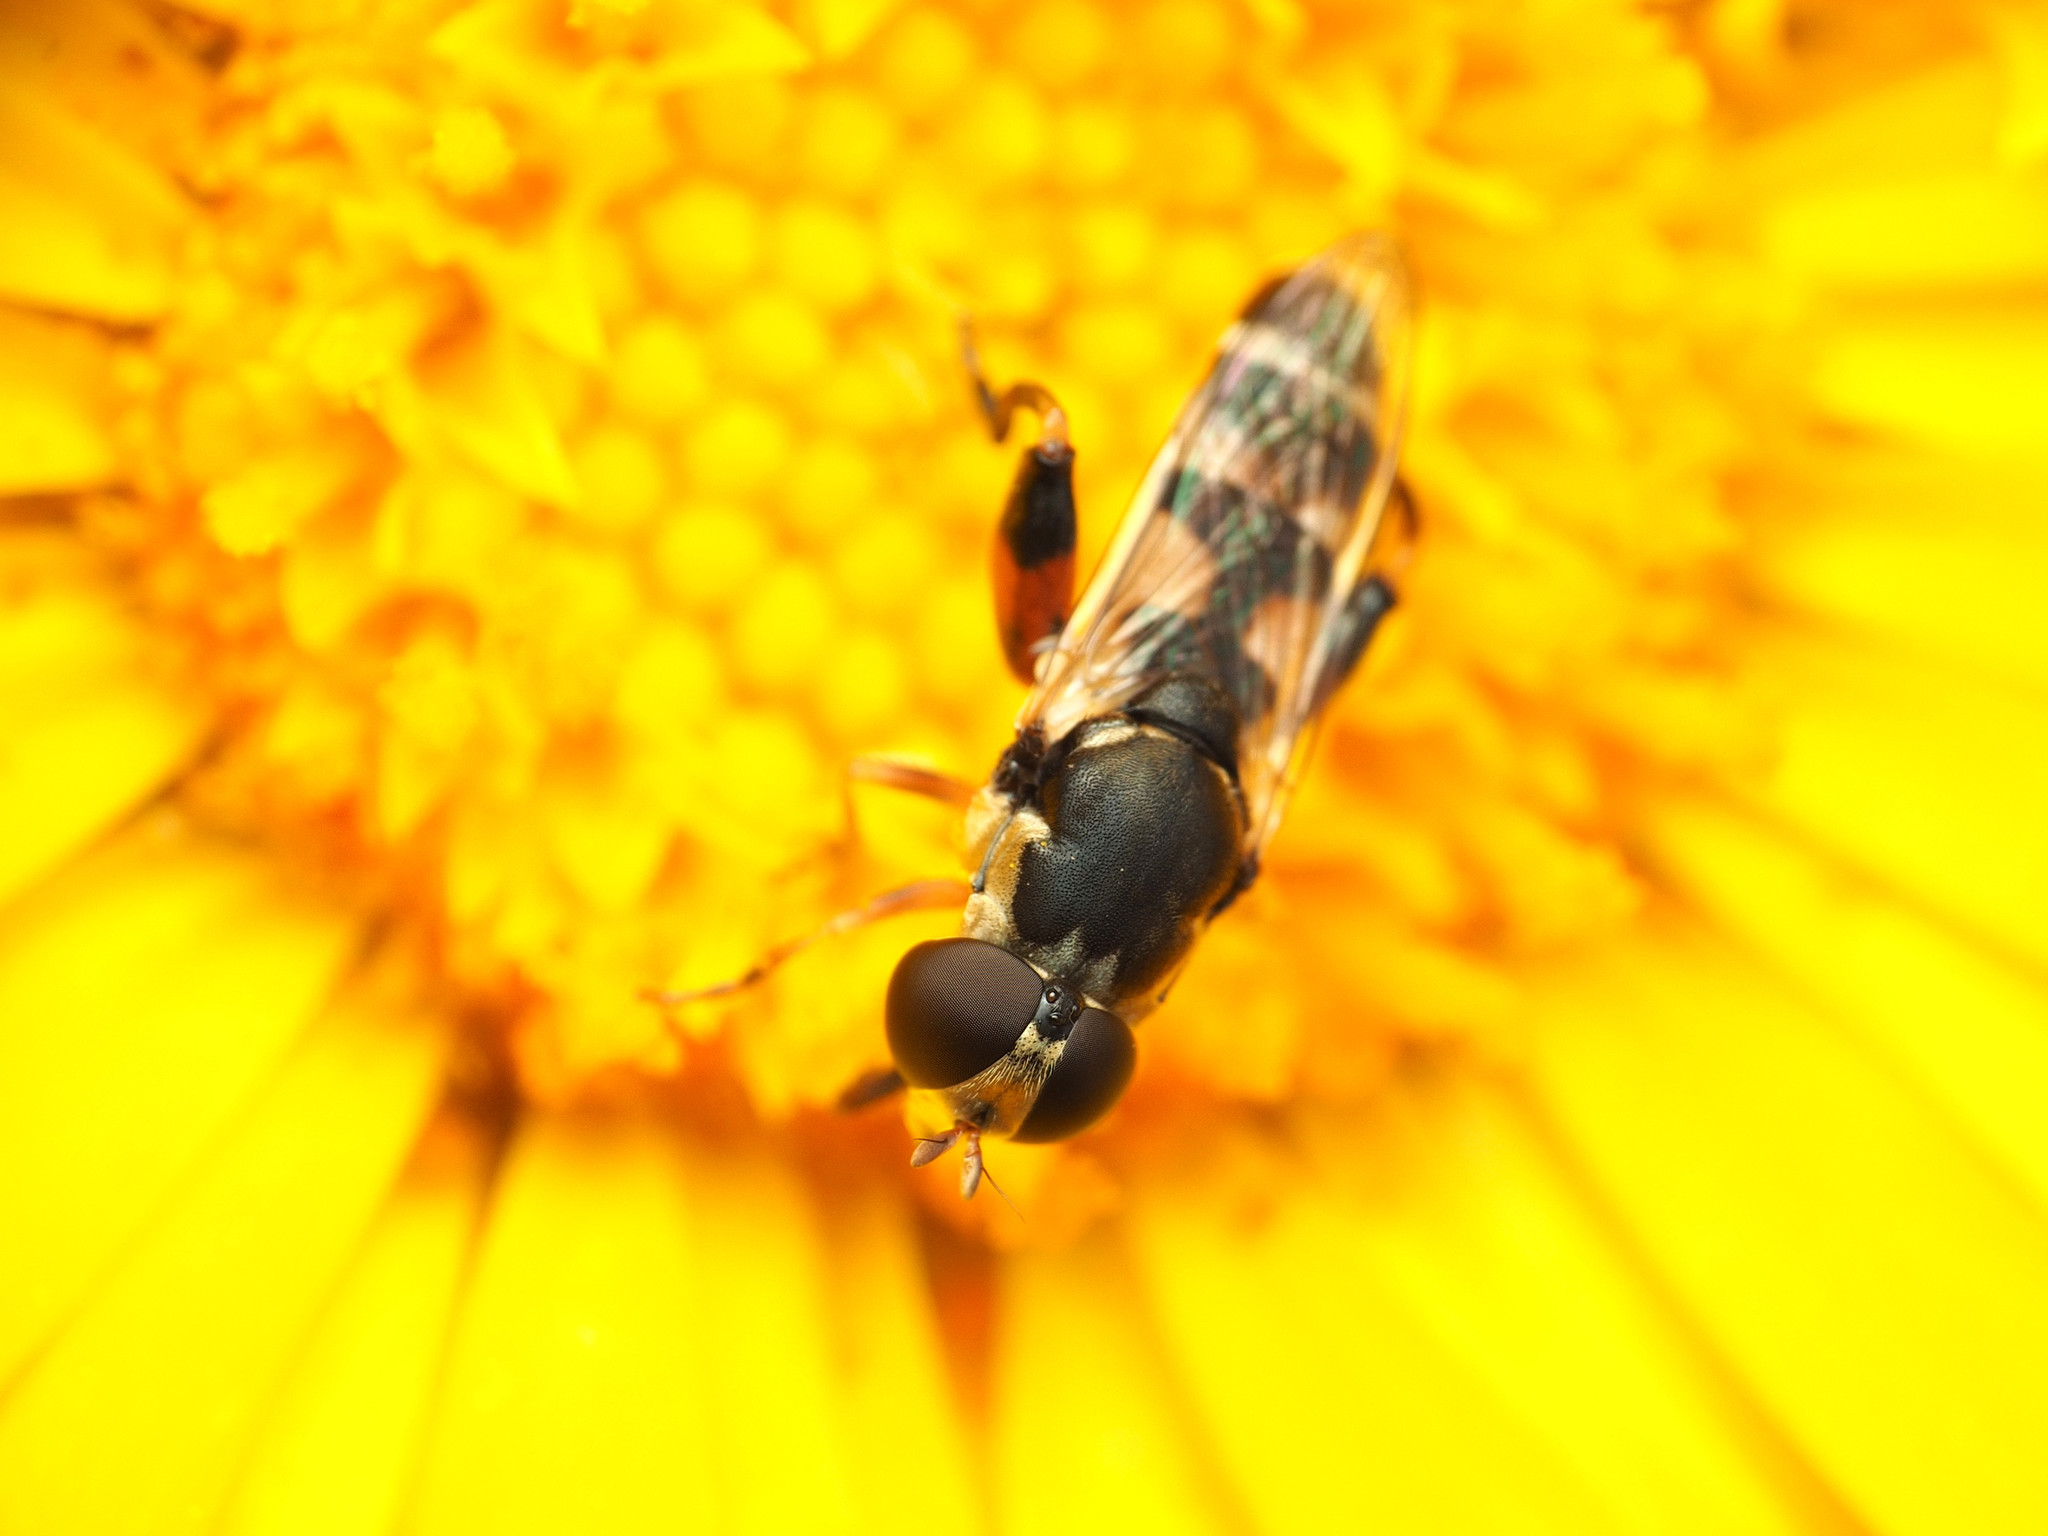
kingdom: Animalia
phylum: Arthropoda
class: Insecta
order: Diptera
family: Syrphidae
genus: Syritta
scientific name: Syritta pipiens
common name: Hover fly
